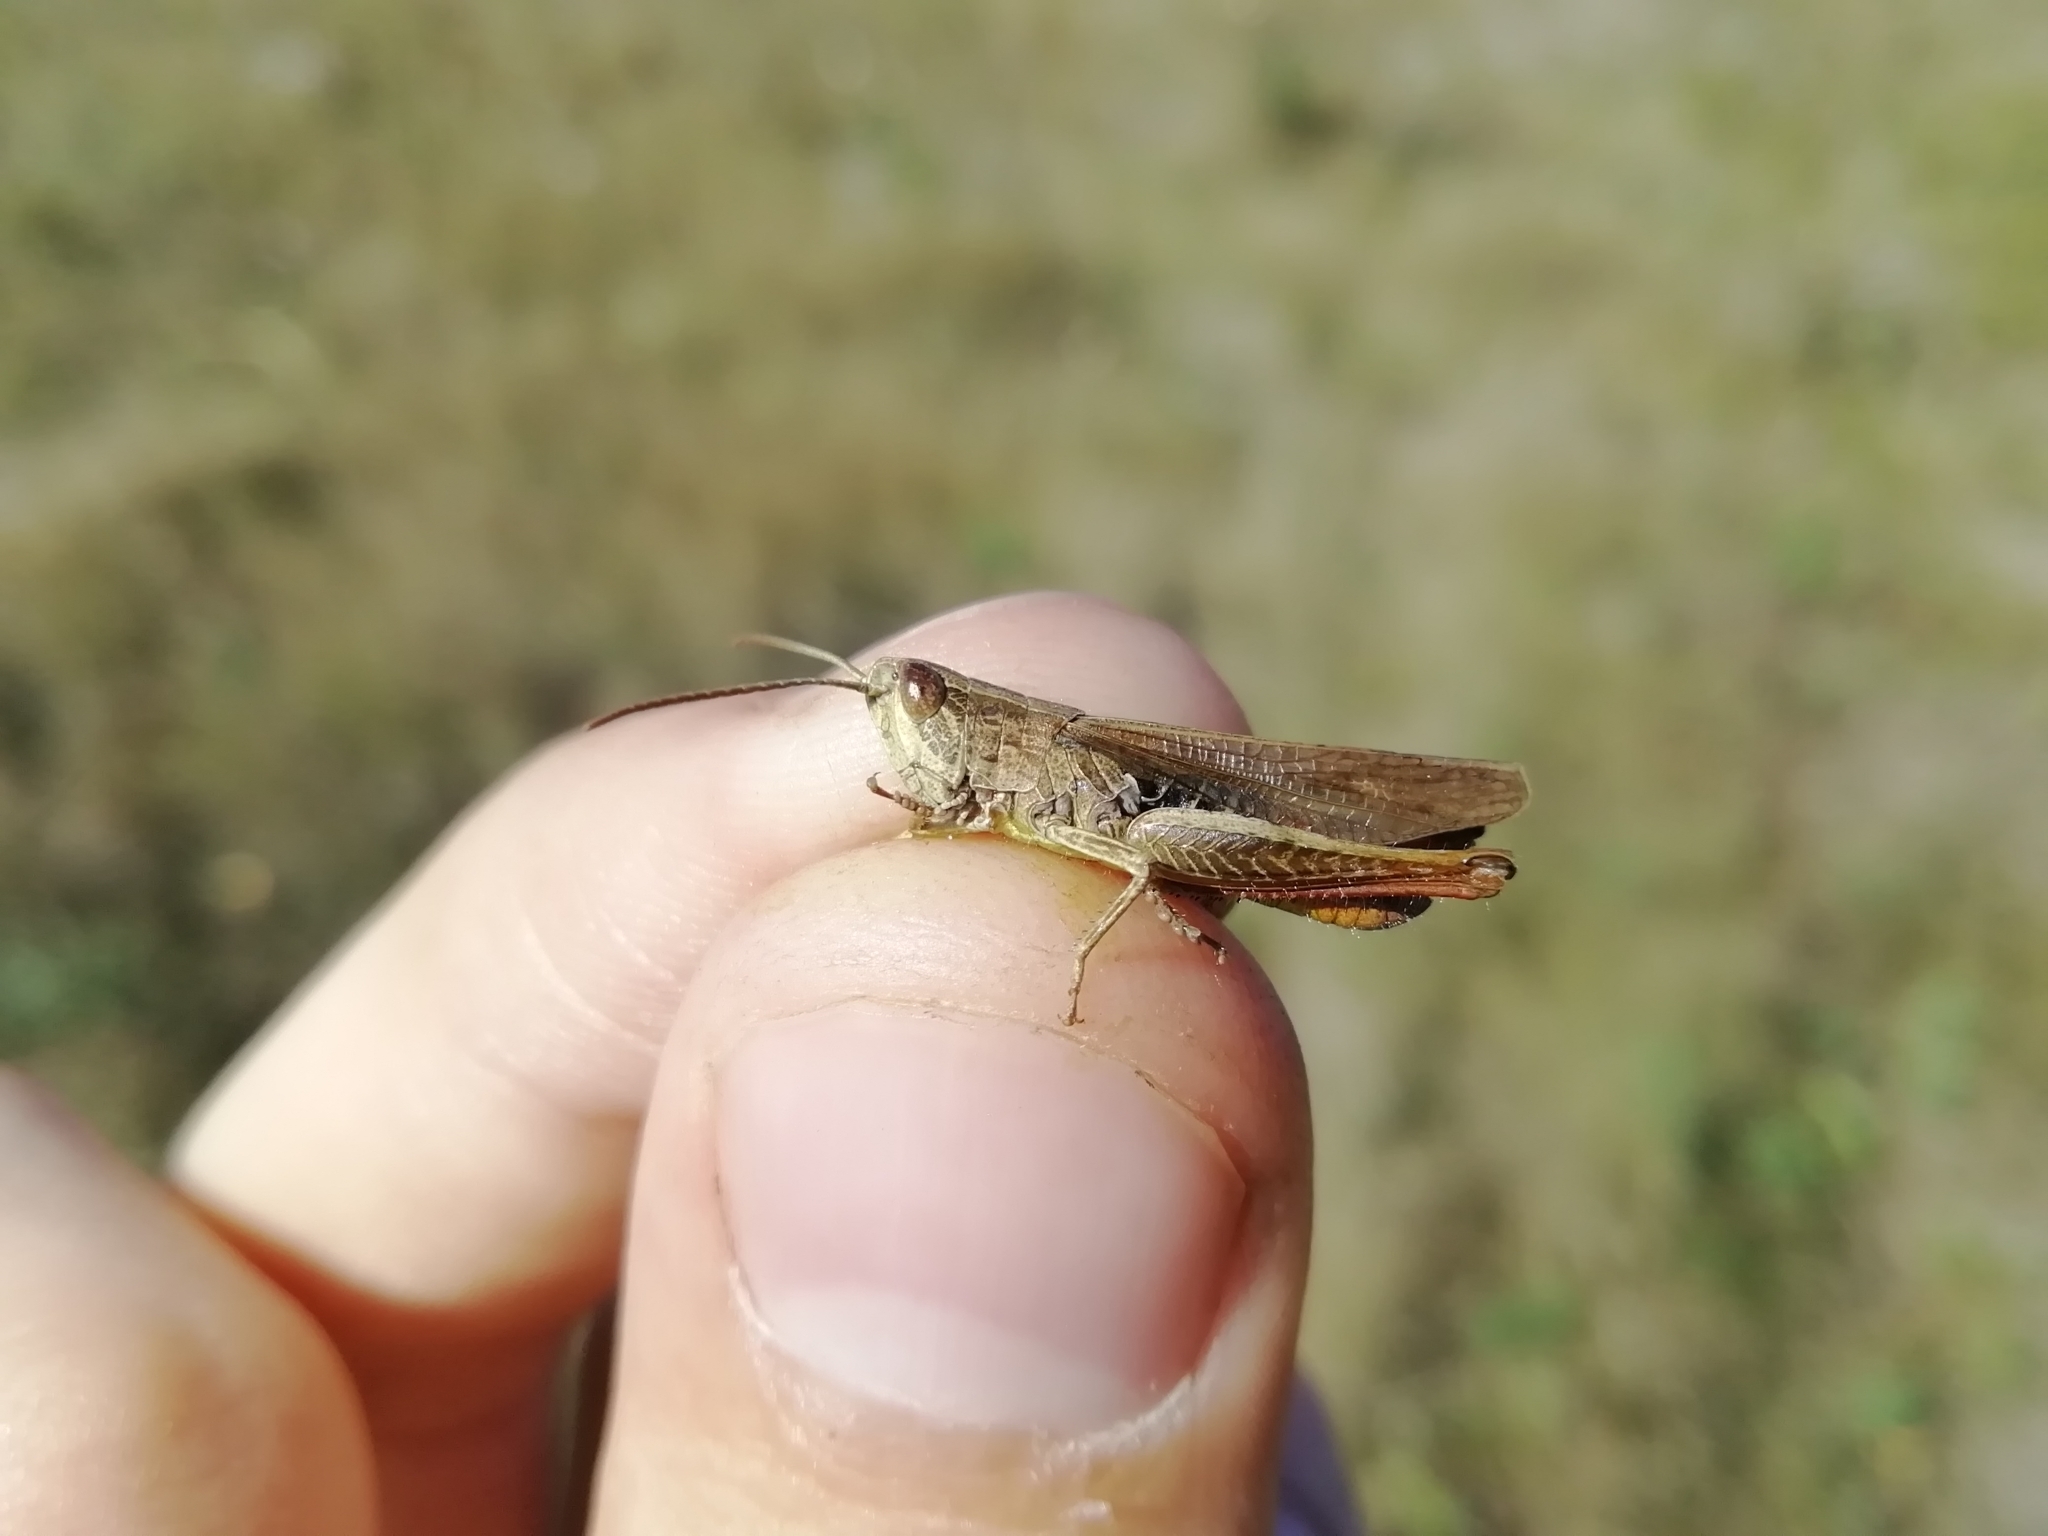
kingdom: Animalia
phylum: Arthropoda
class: Insecta
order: Orthoptera
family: Acrididae
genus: Chorthippus
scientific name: Chorthippus biguttulus
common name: Bow-winged grasshopper
